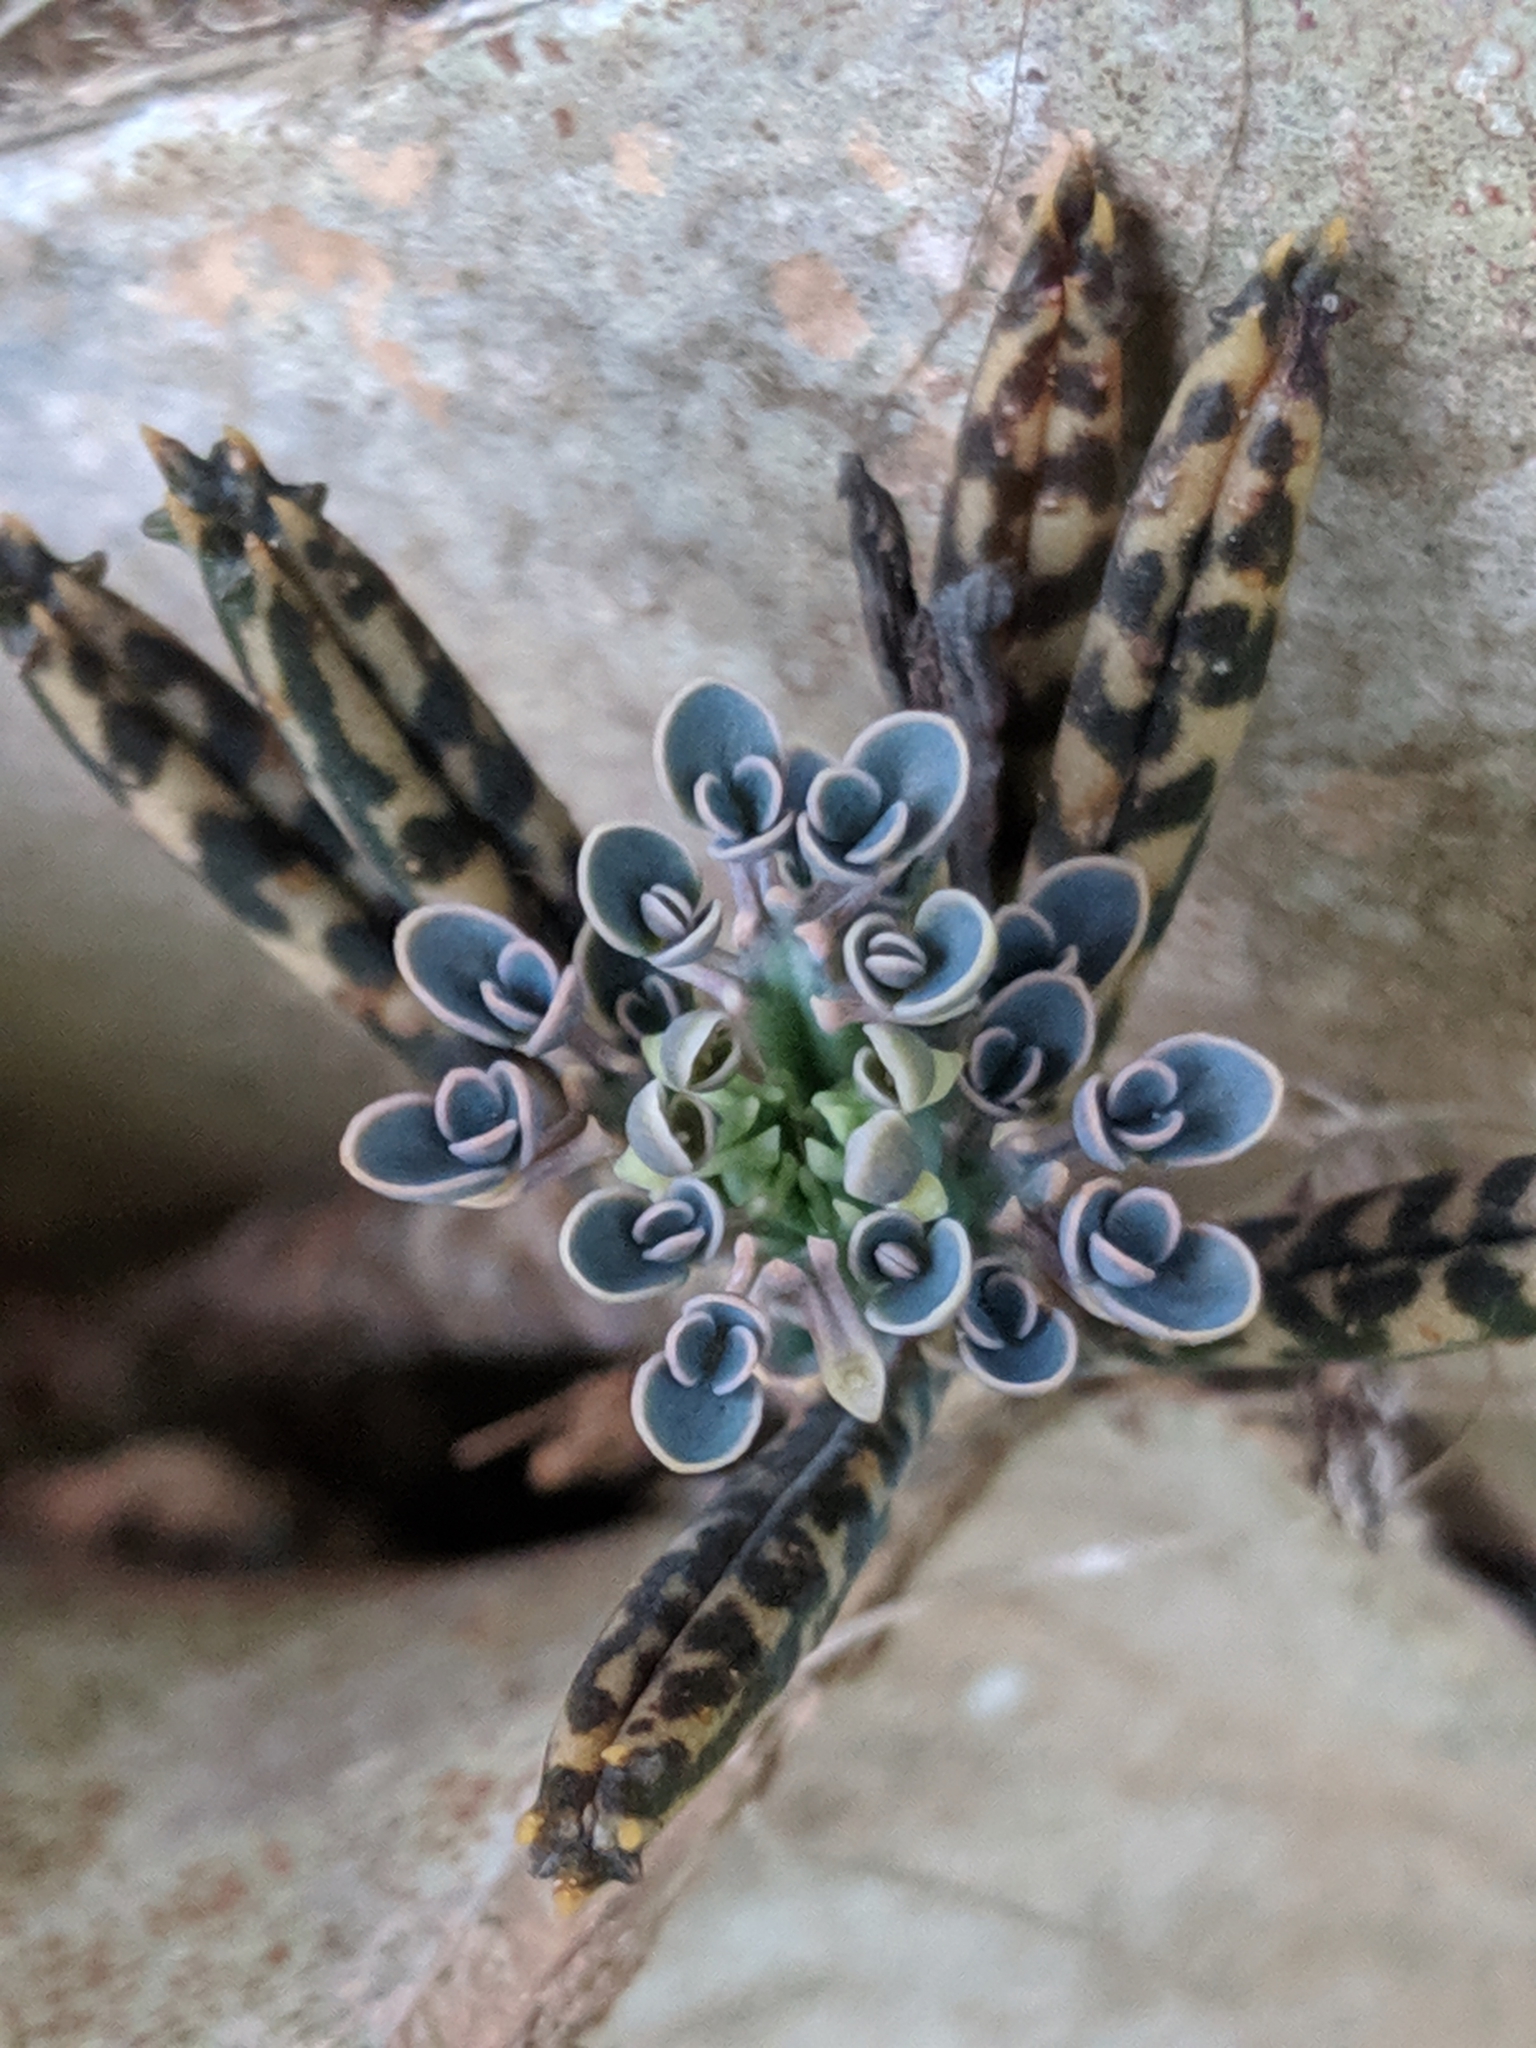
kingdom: Plantae
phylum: Tracheophyta
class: Magnoliopsida
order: Saxifragales
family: Crassulaceae
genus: Kalanchoe
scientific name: Kalanchoe delagoensis
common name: Chandelier plant
